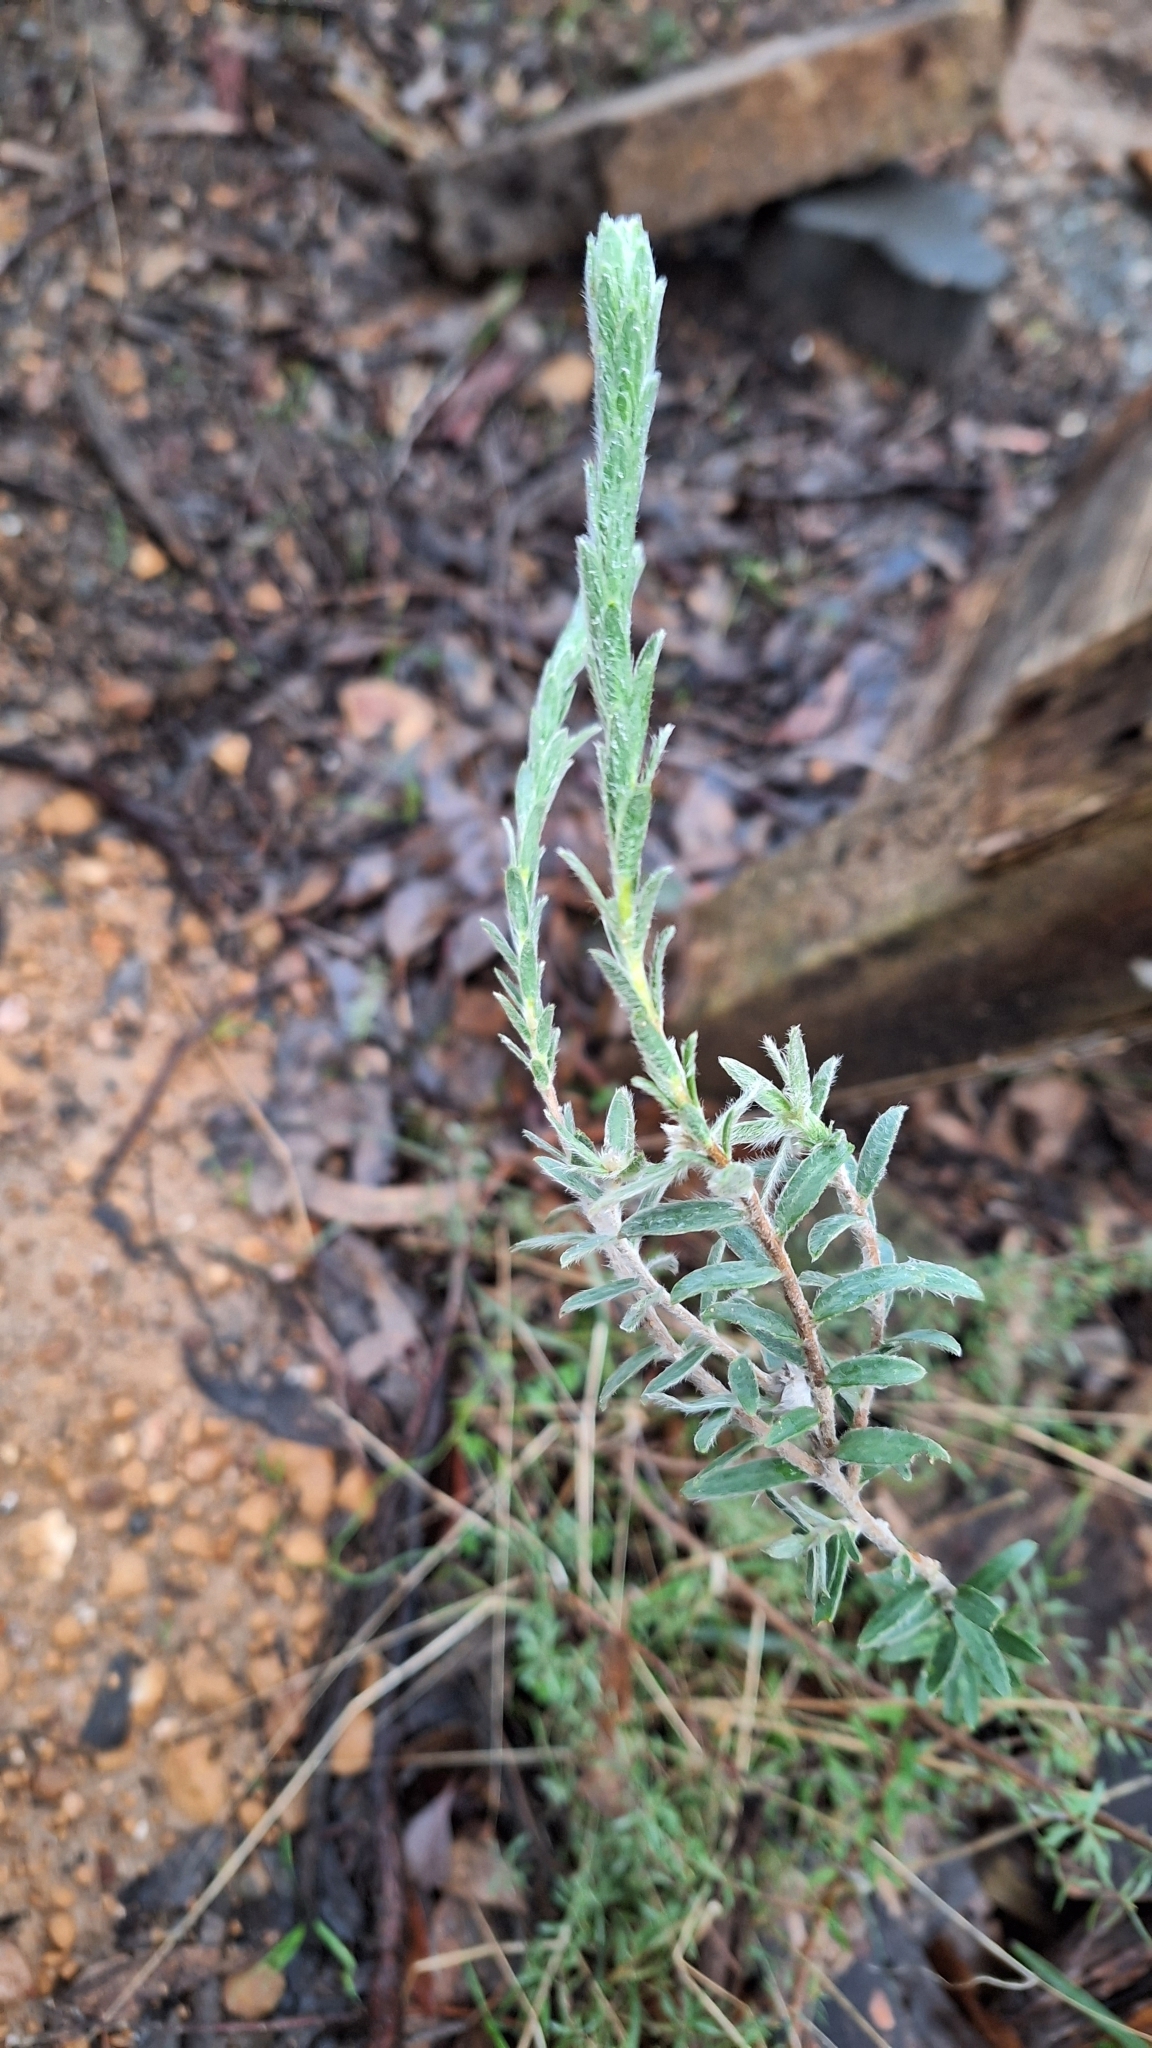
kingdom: Plantae
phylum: Tracheophyta
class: Magnoliopsida
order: Malvales
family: Thymelaeaceae
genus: Pimelea
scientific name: Pimelea octophylla
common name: Woolly riceflower
